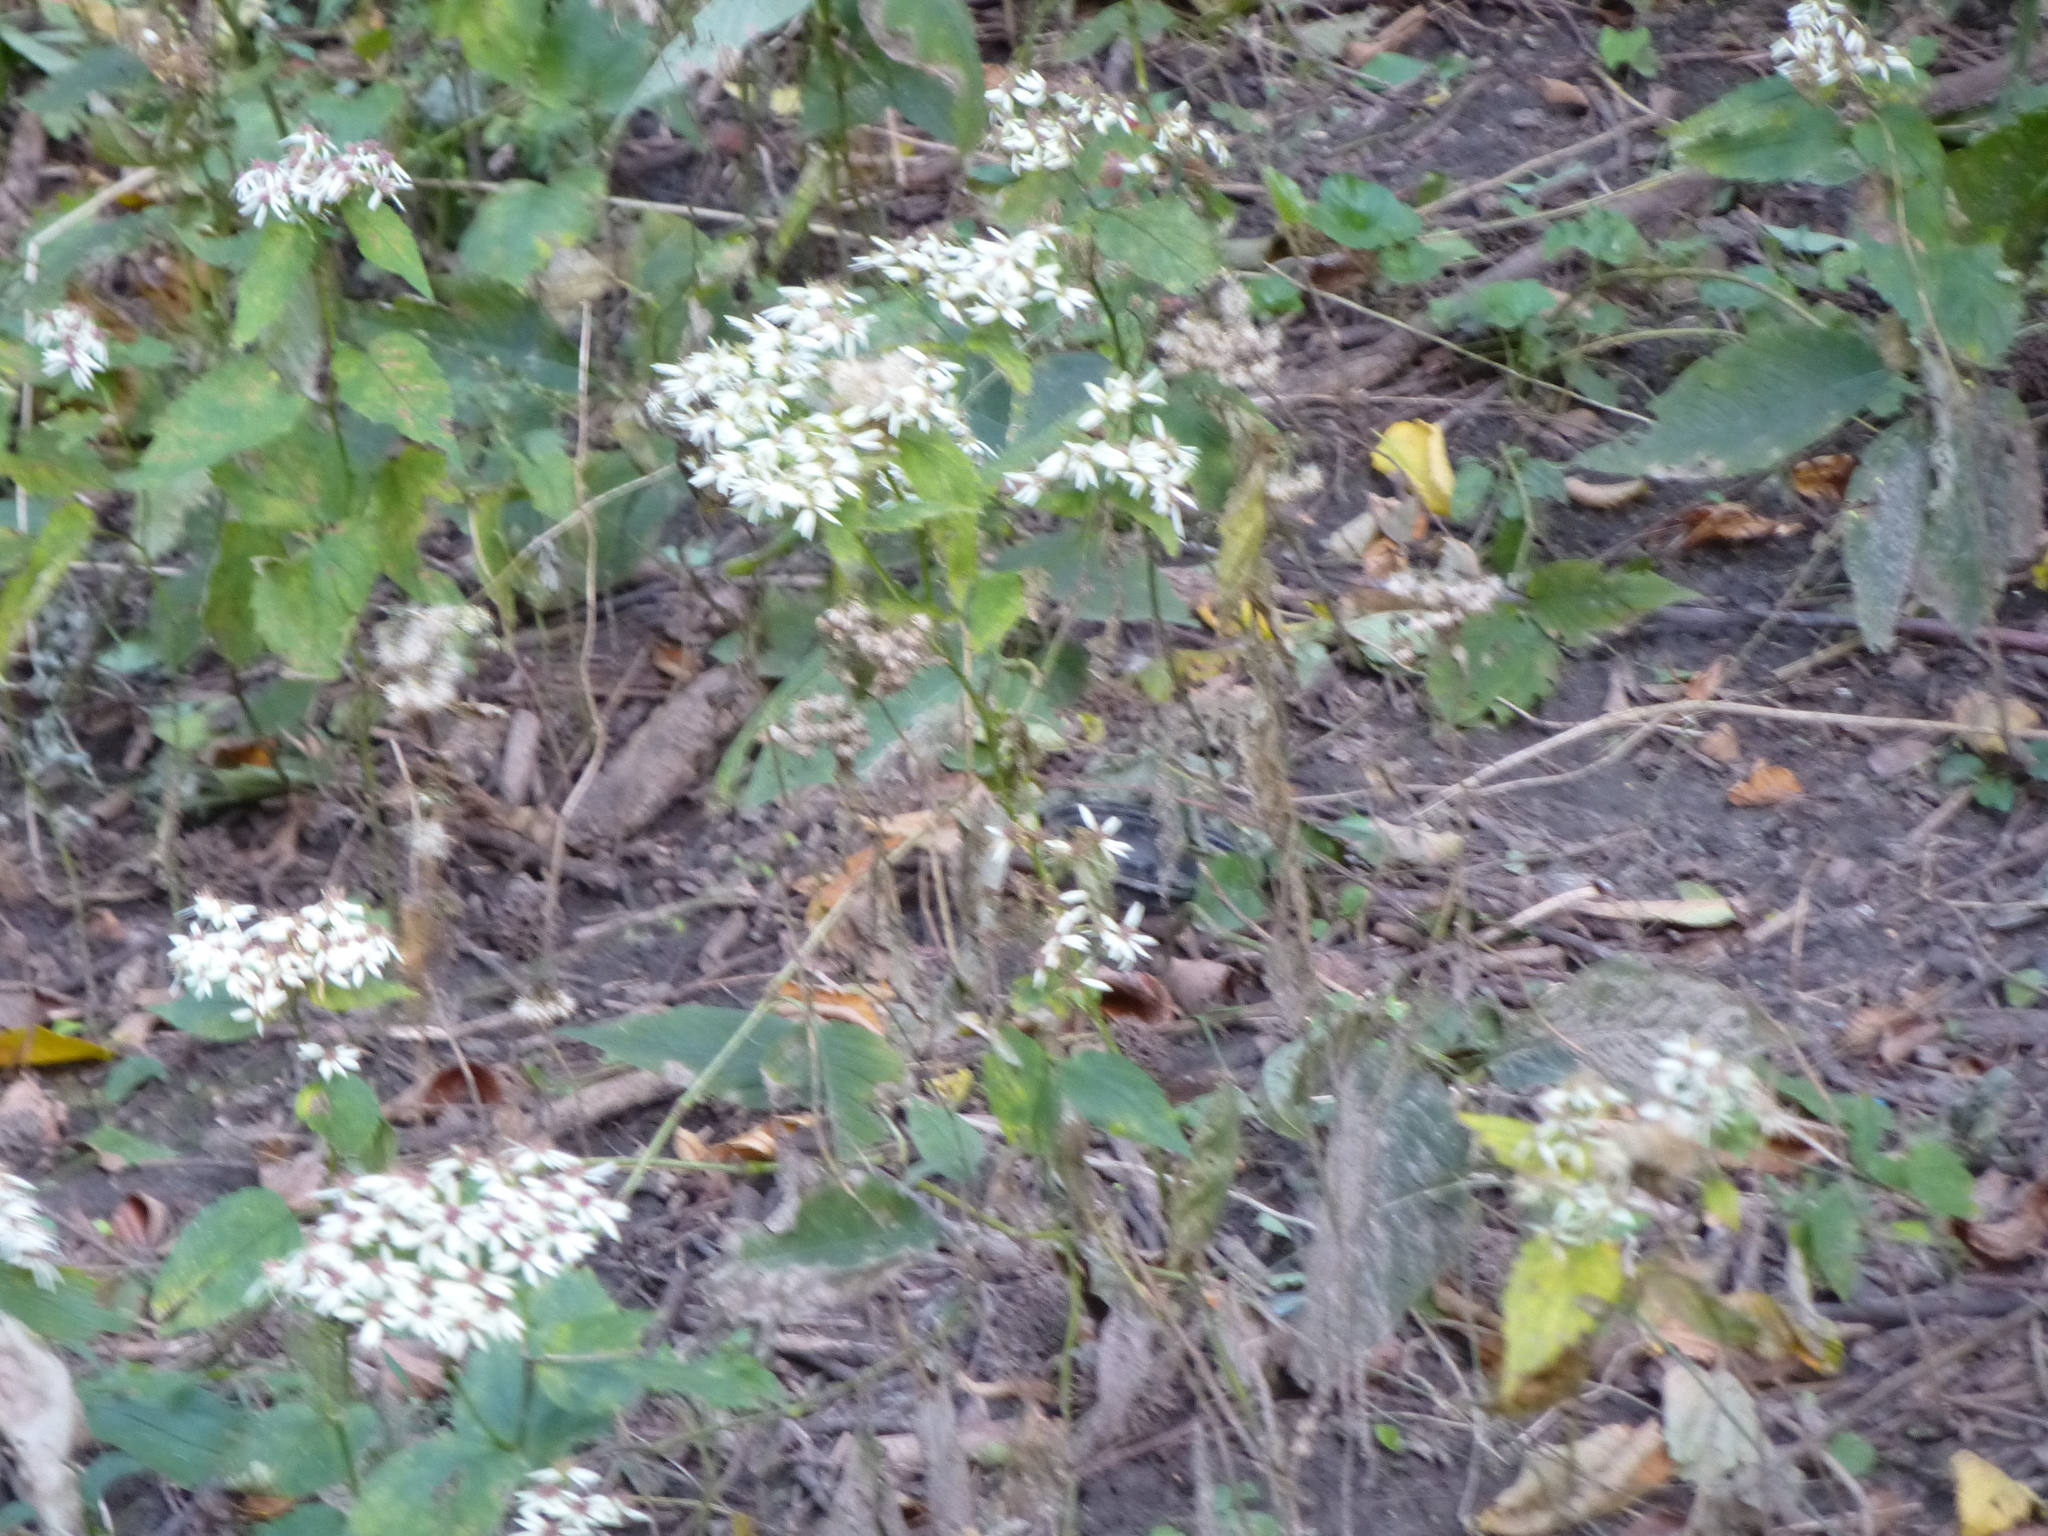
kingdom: Plantae
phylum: Tracheophyta
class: Magnoliopsida
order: Asterales
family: Asteraceae
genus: Ageratina
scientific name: Ageratina altissima
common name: White snakeroot
